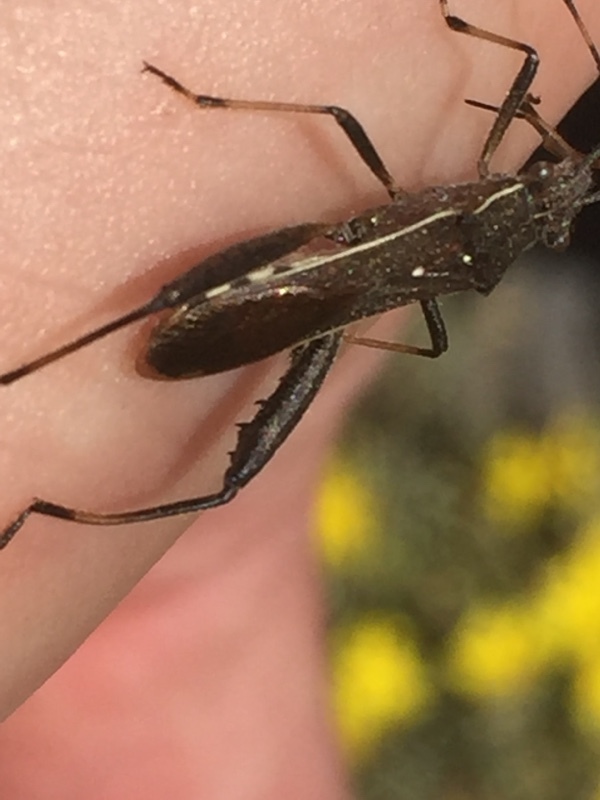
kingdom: Animalia
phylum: Arthropoda
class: Insecta
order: Hemiptera
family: Alydidae
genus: Camptopus
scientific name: Camptopus lateralis
